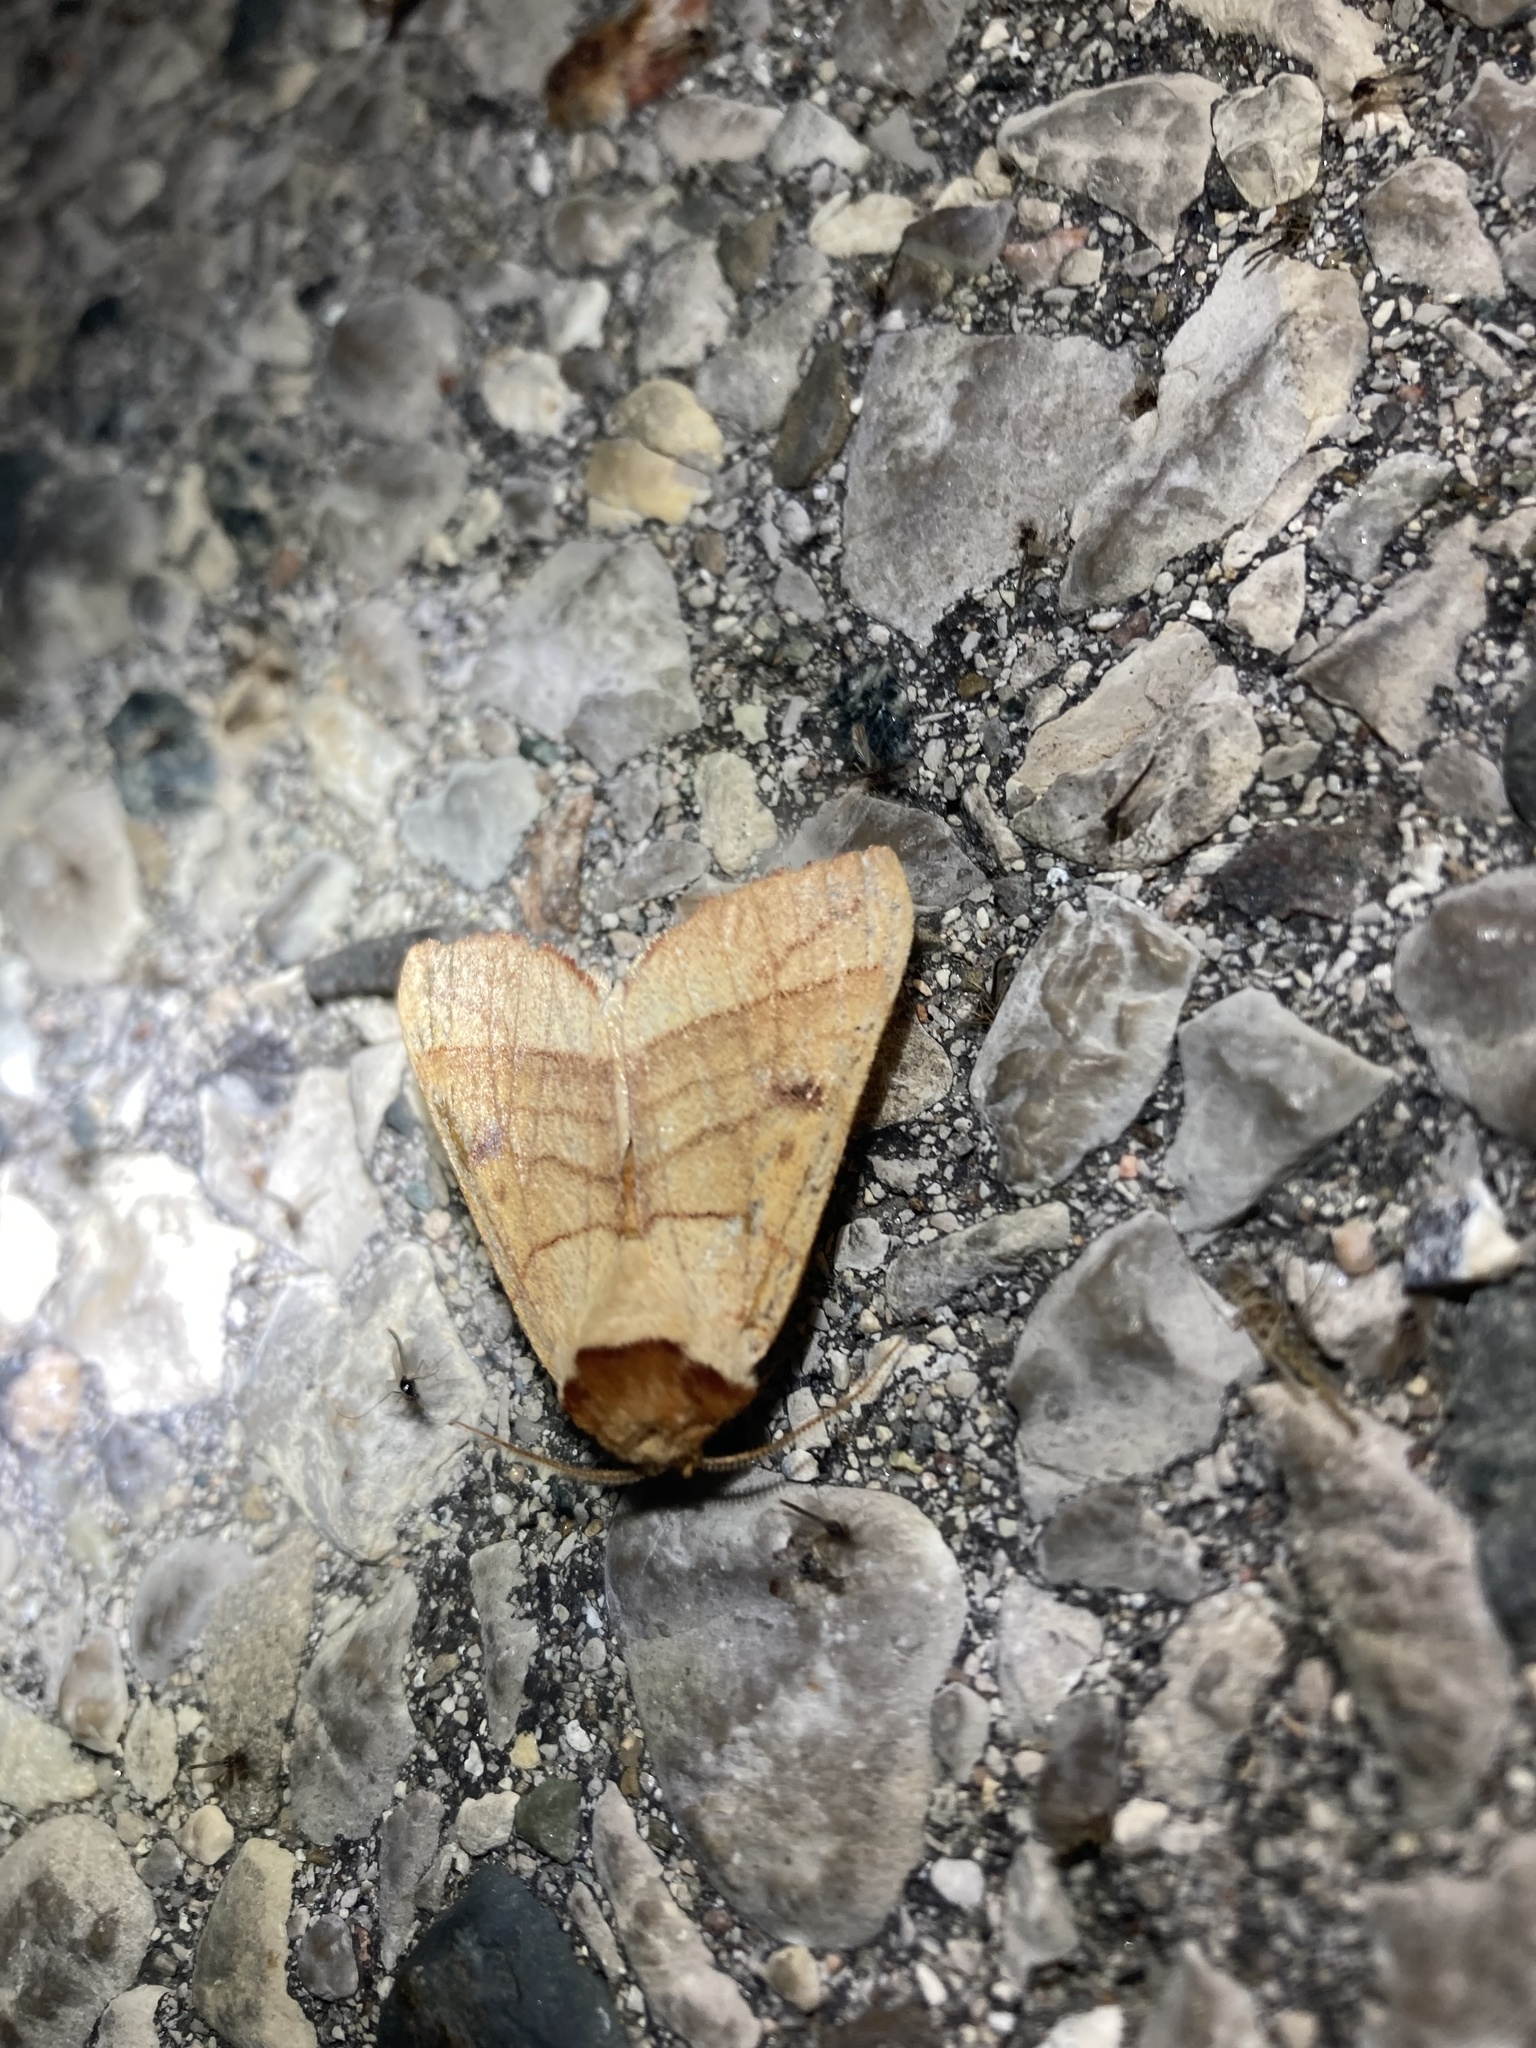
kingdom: Animalia
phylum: Arthropoda
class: Insecta
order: Lepidoptera
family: Notodontidae
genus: Datana
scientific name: Datana perspicua
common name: Spotted datana
